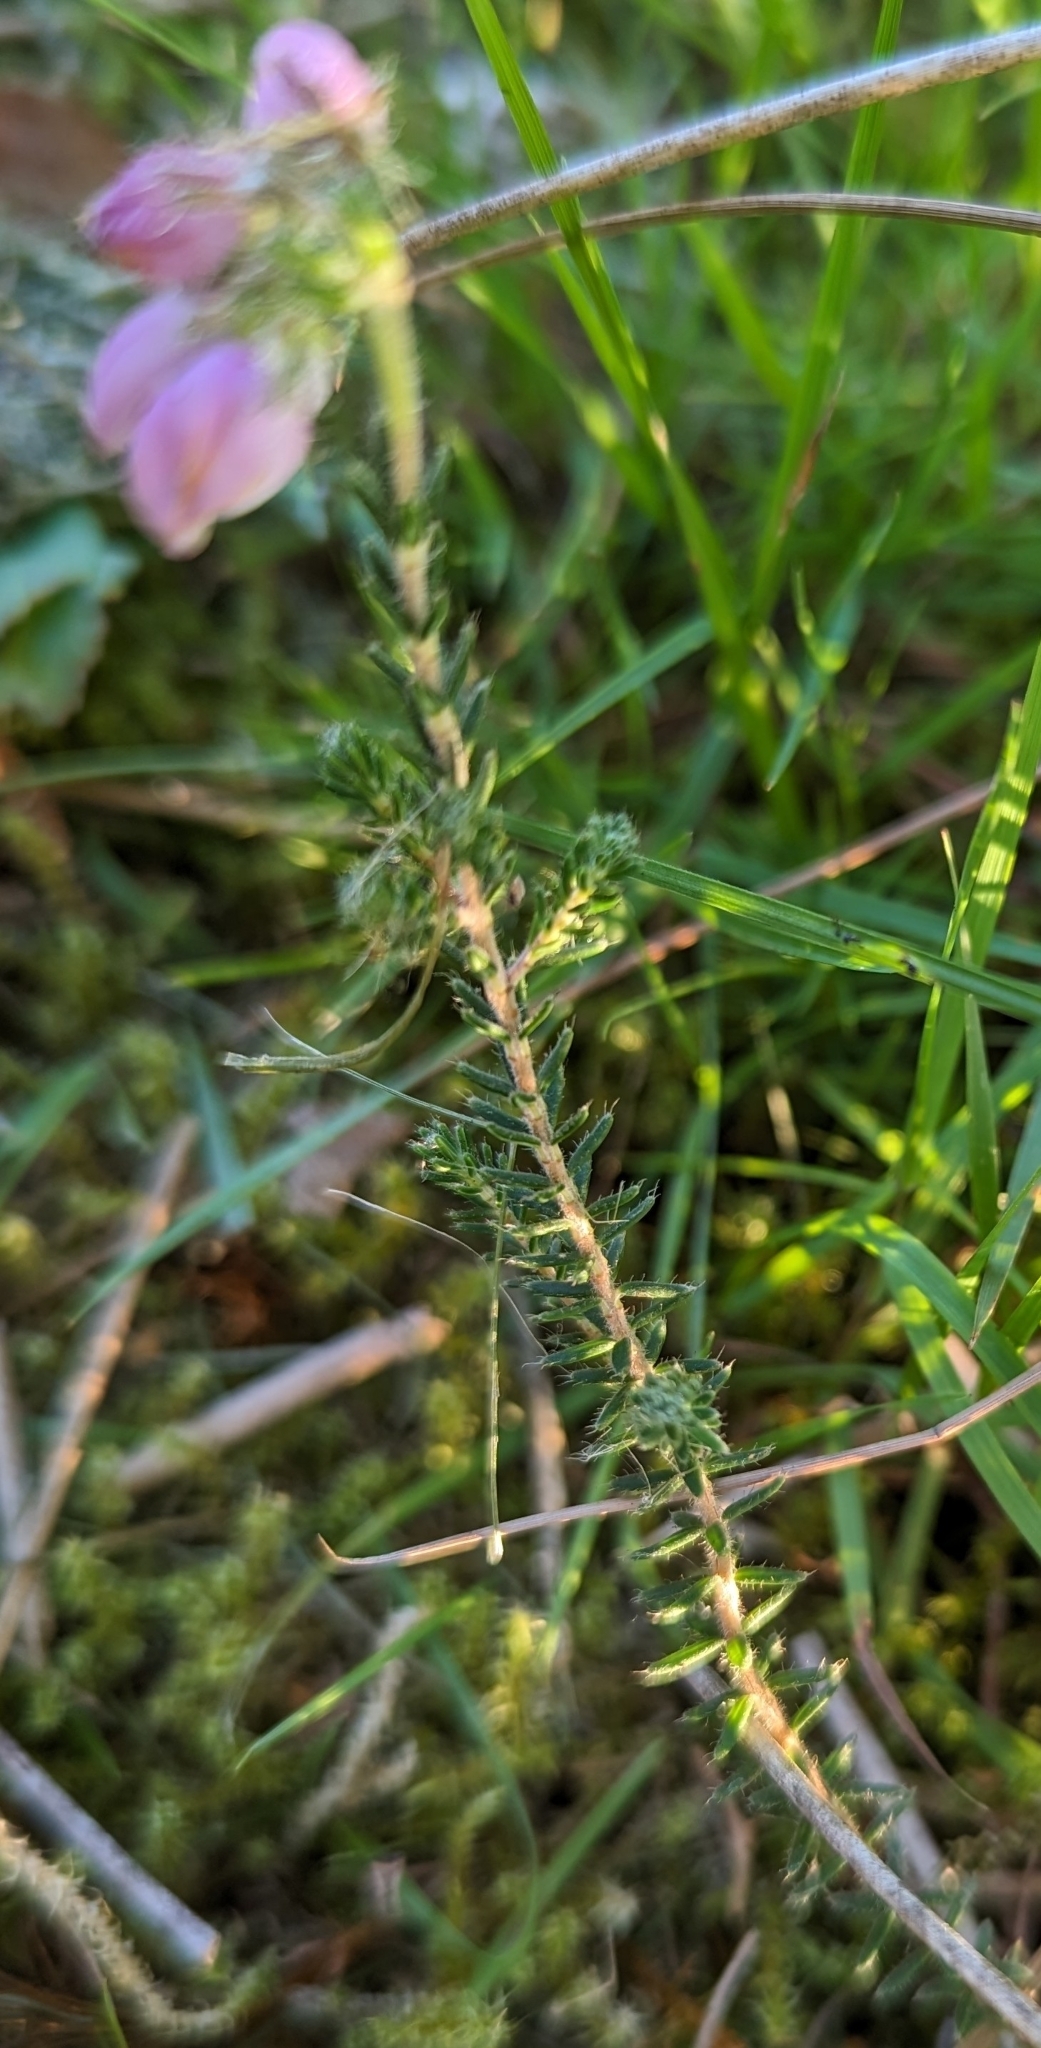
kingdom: Plantae
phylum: Tracheophyta
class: Magnoliopsida
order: Ericales
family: Ericaceae
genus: Erica
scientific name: Erica tetralix
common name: Cross-leaved heath
